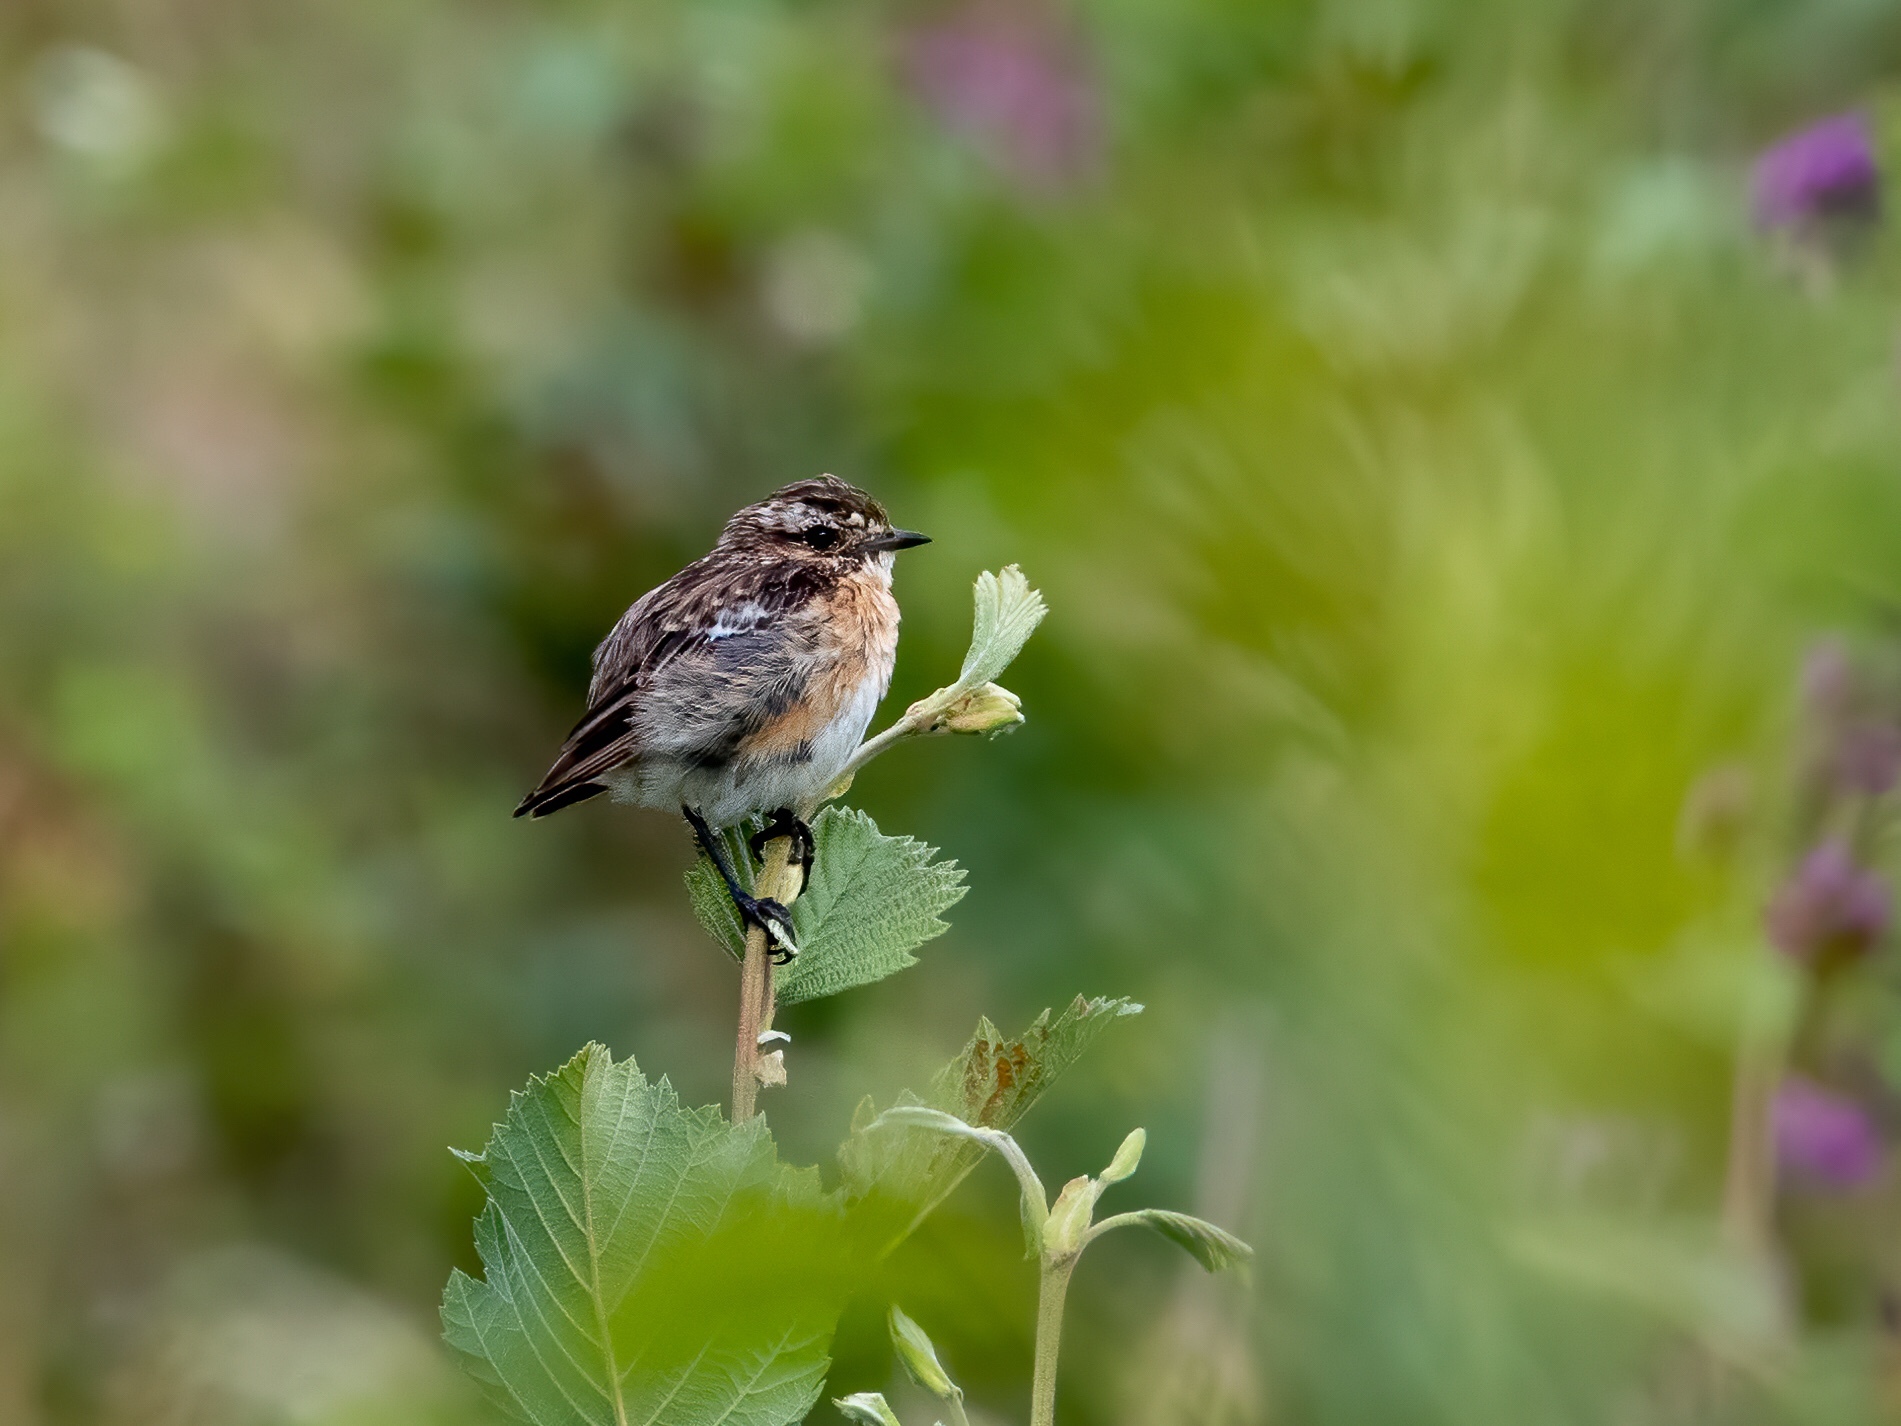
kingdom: Animalia
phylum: Chordata
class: Aves
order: Passeriformes
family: Muscicapidae
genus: Saxicola
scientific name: Saxicola rubetra
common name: Whinchat
